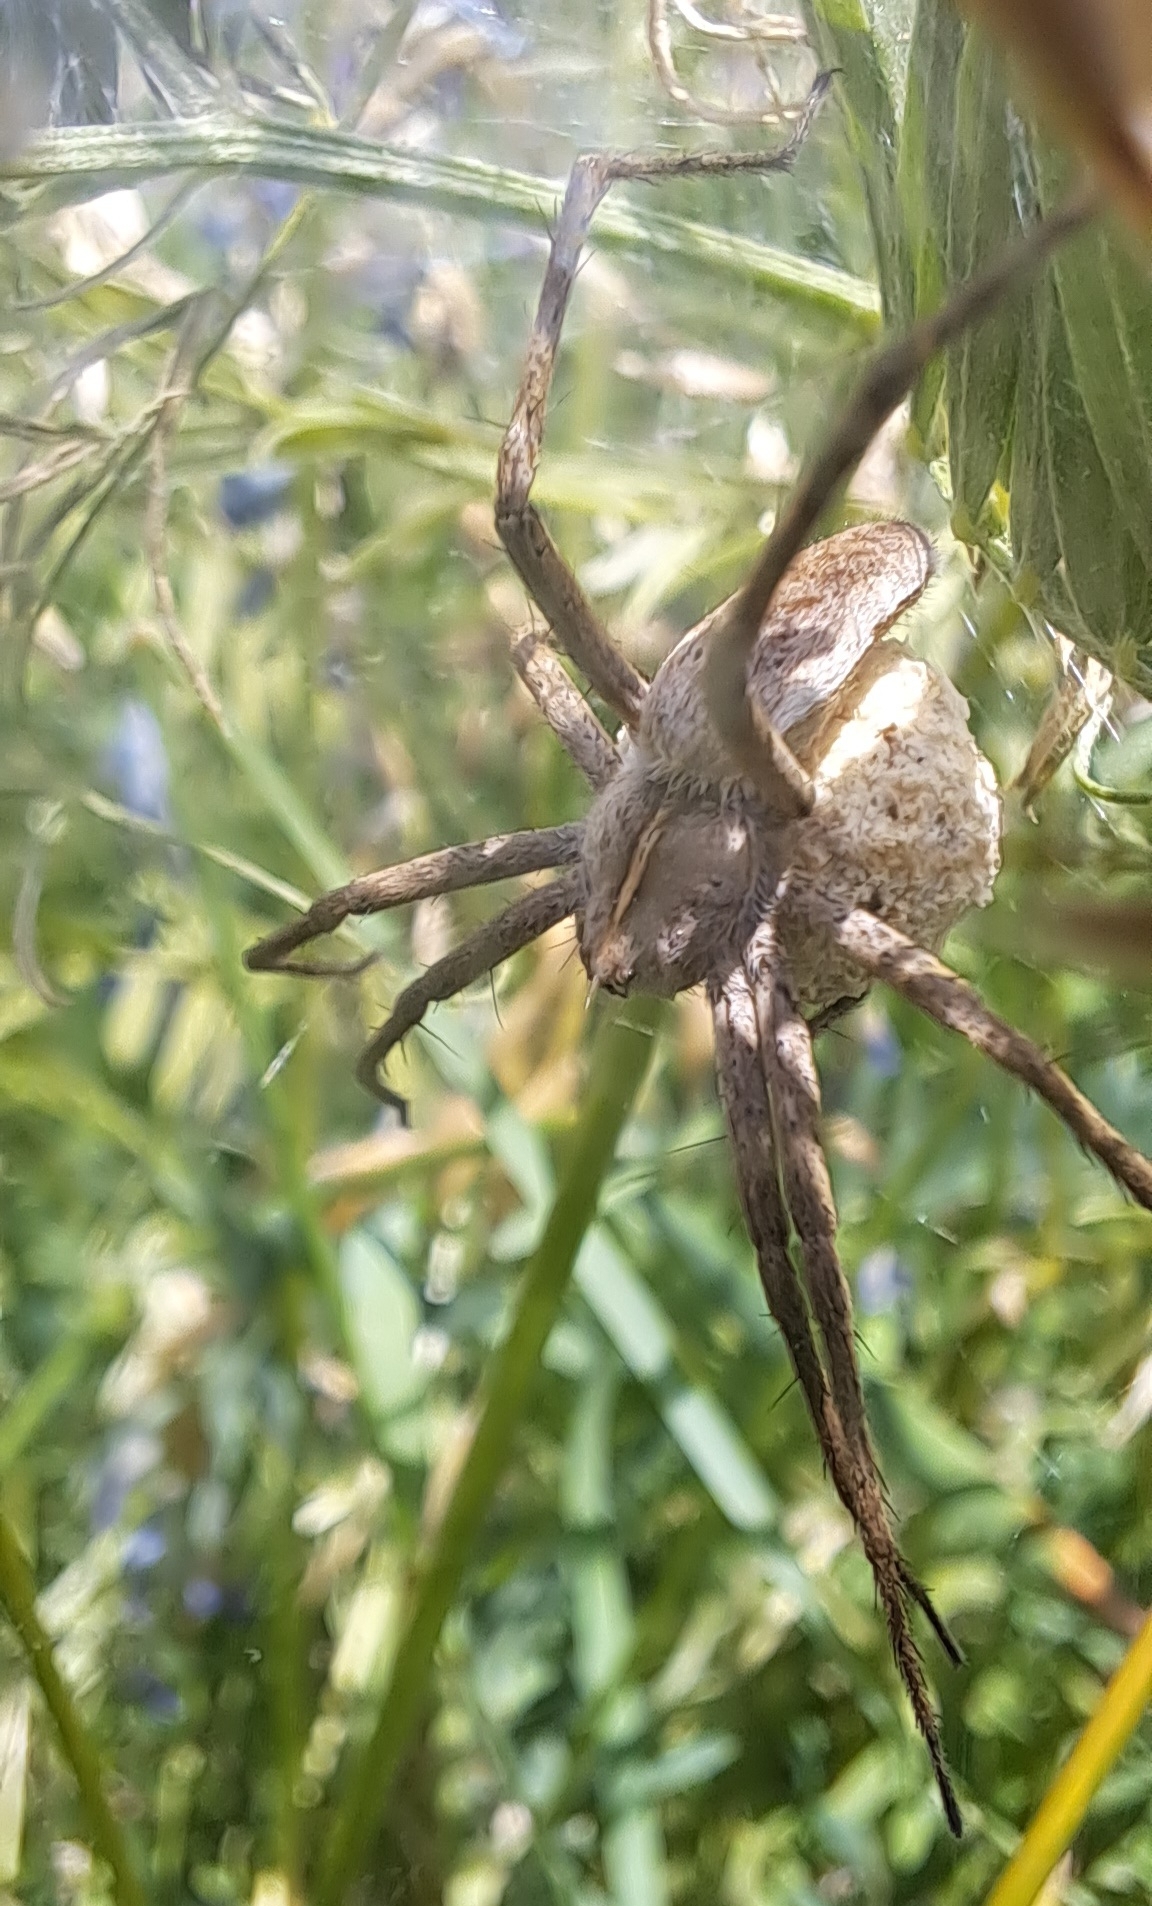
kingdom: Animalia
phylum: Arthropoda
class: Arachnida
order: Araneae
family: Pisauridae
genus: Pisaura
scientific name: Pisaura mirabilis
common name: Tent spider
